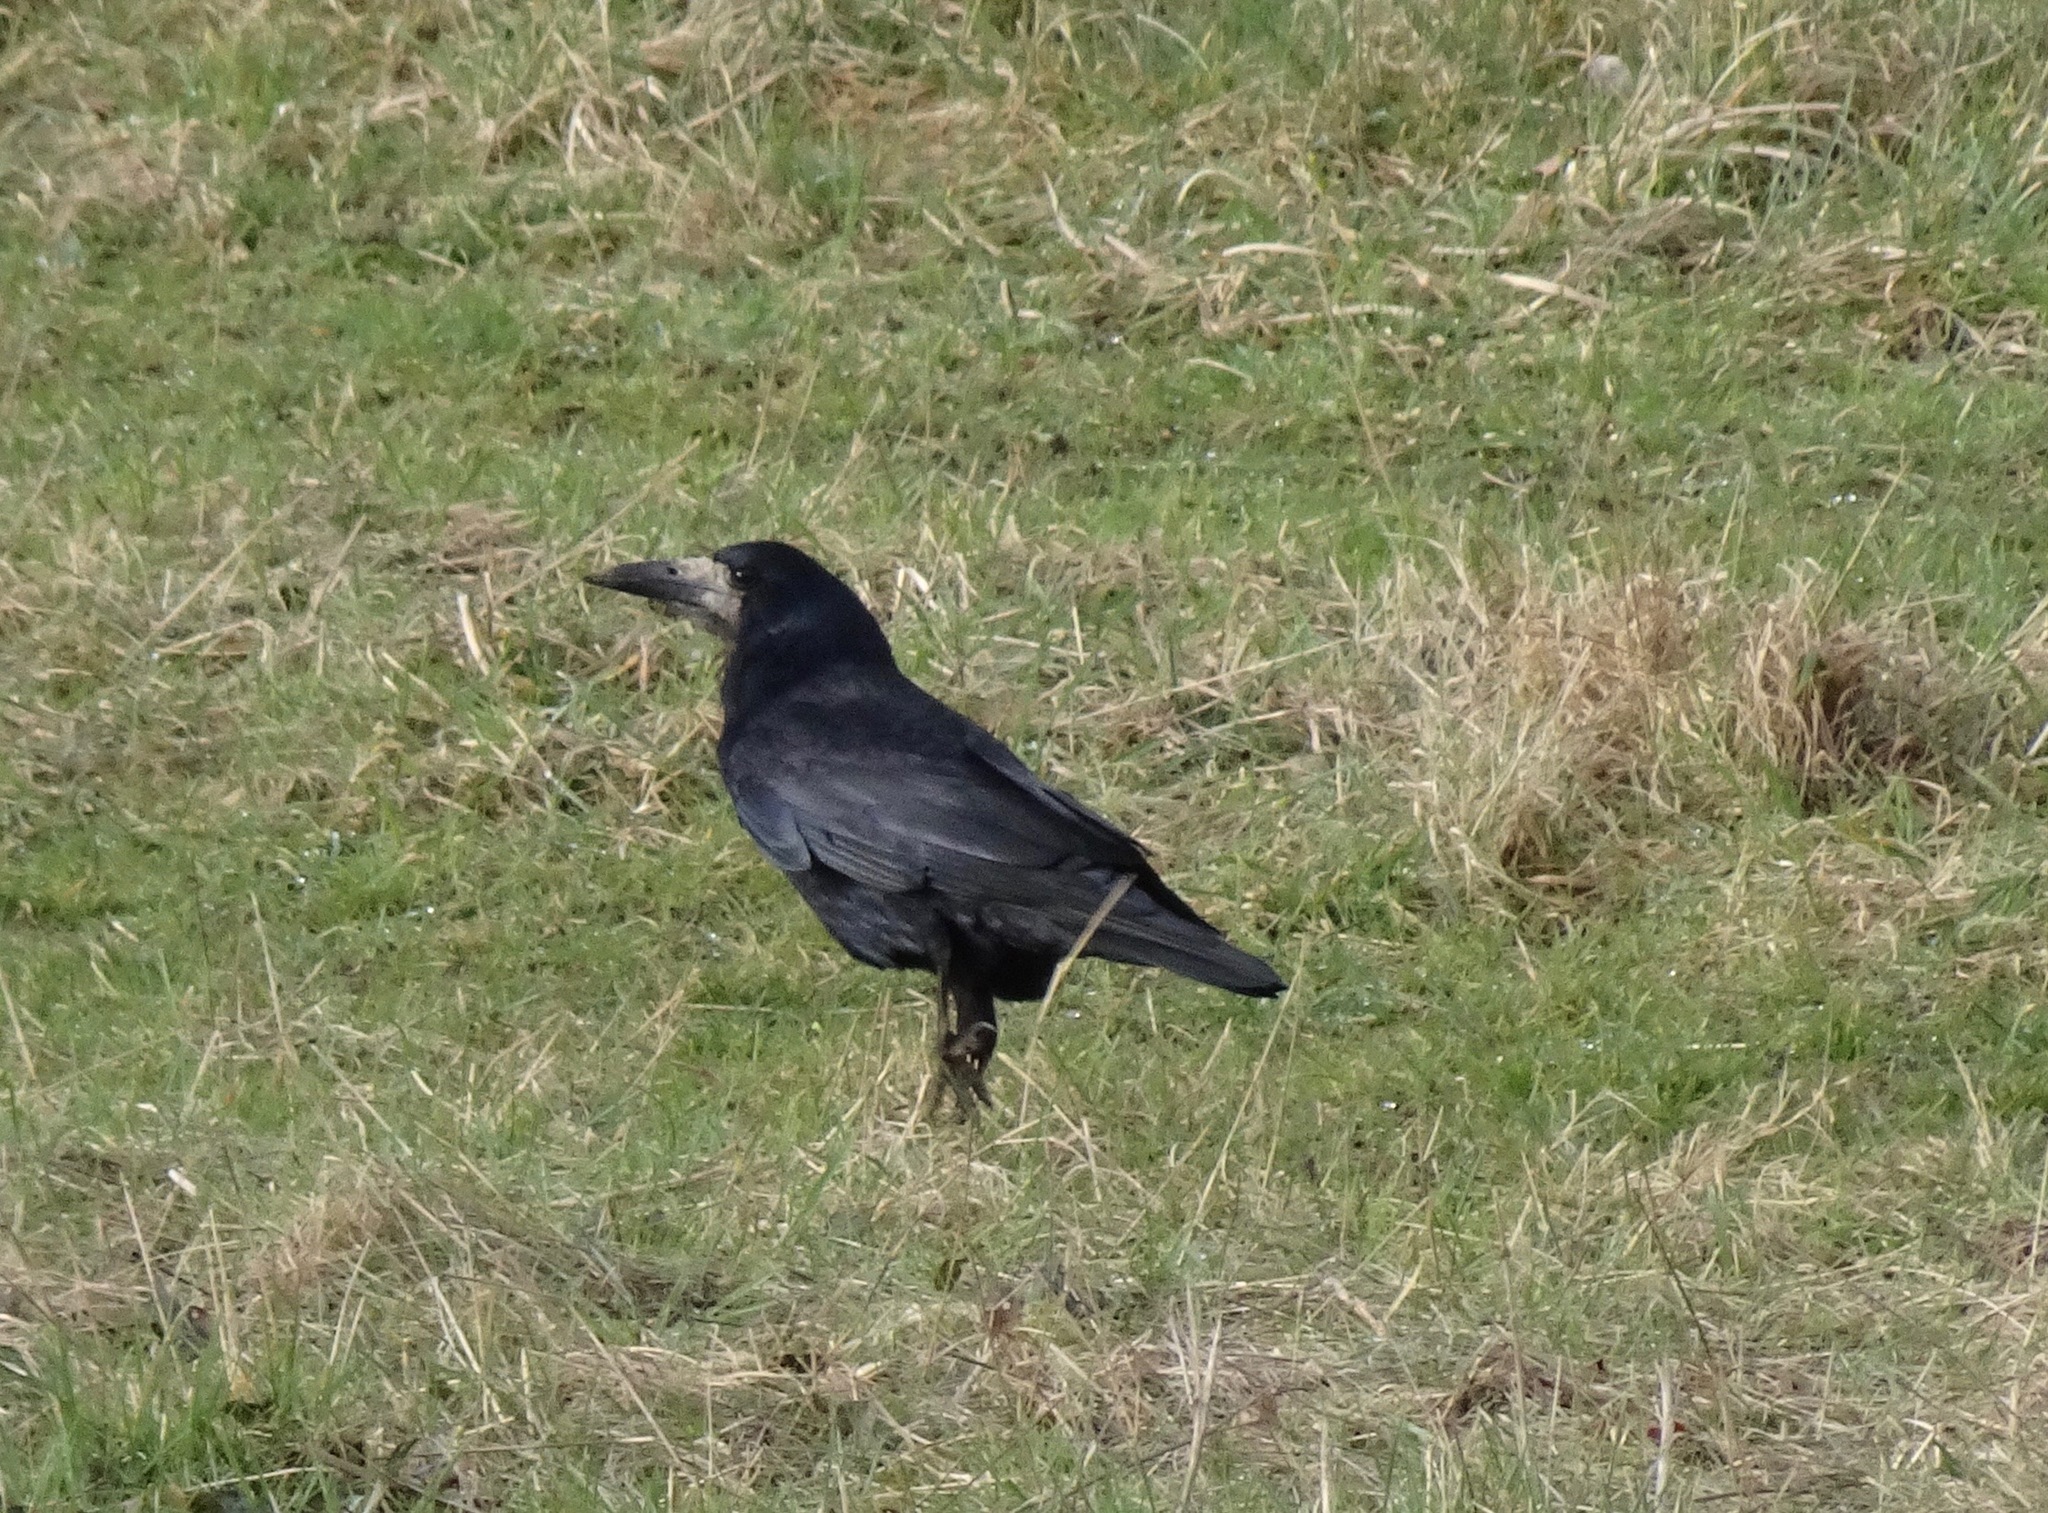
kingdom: Animalia
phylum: Chordata
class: Aves
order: Passeriformes
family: Corvidae
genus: Corvus
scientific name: Corvus frugilegus
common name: Rook
